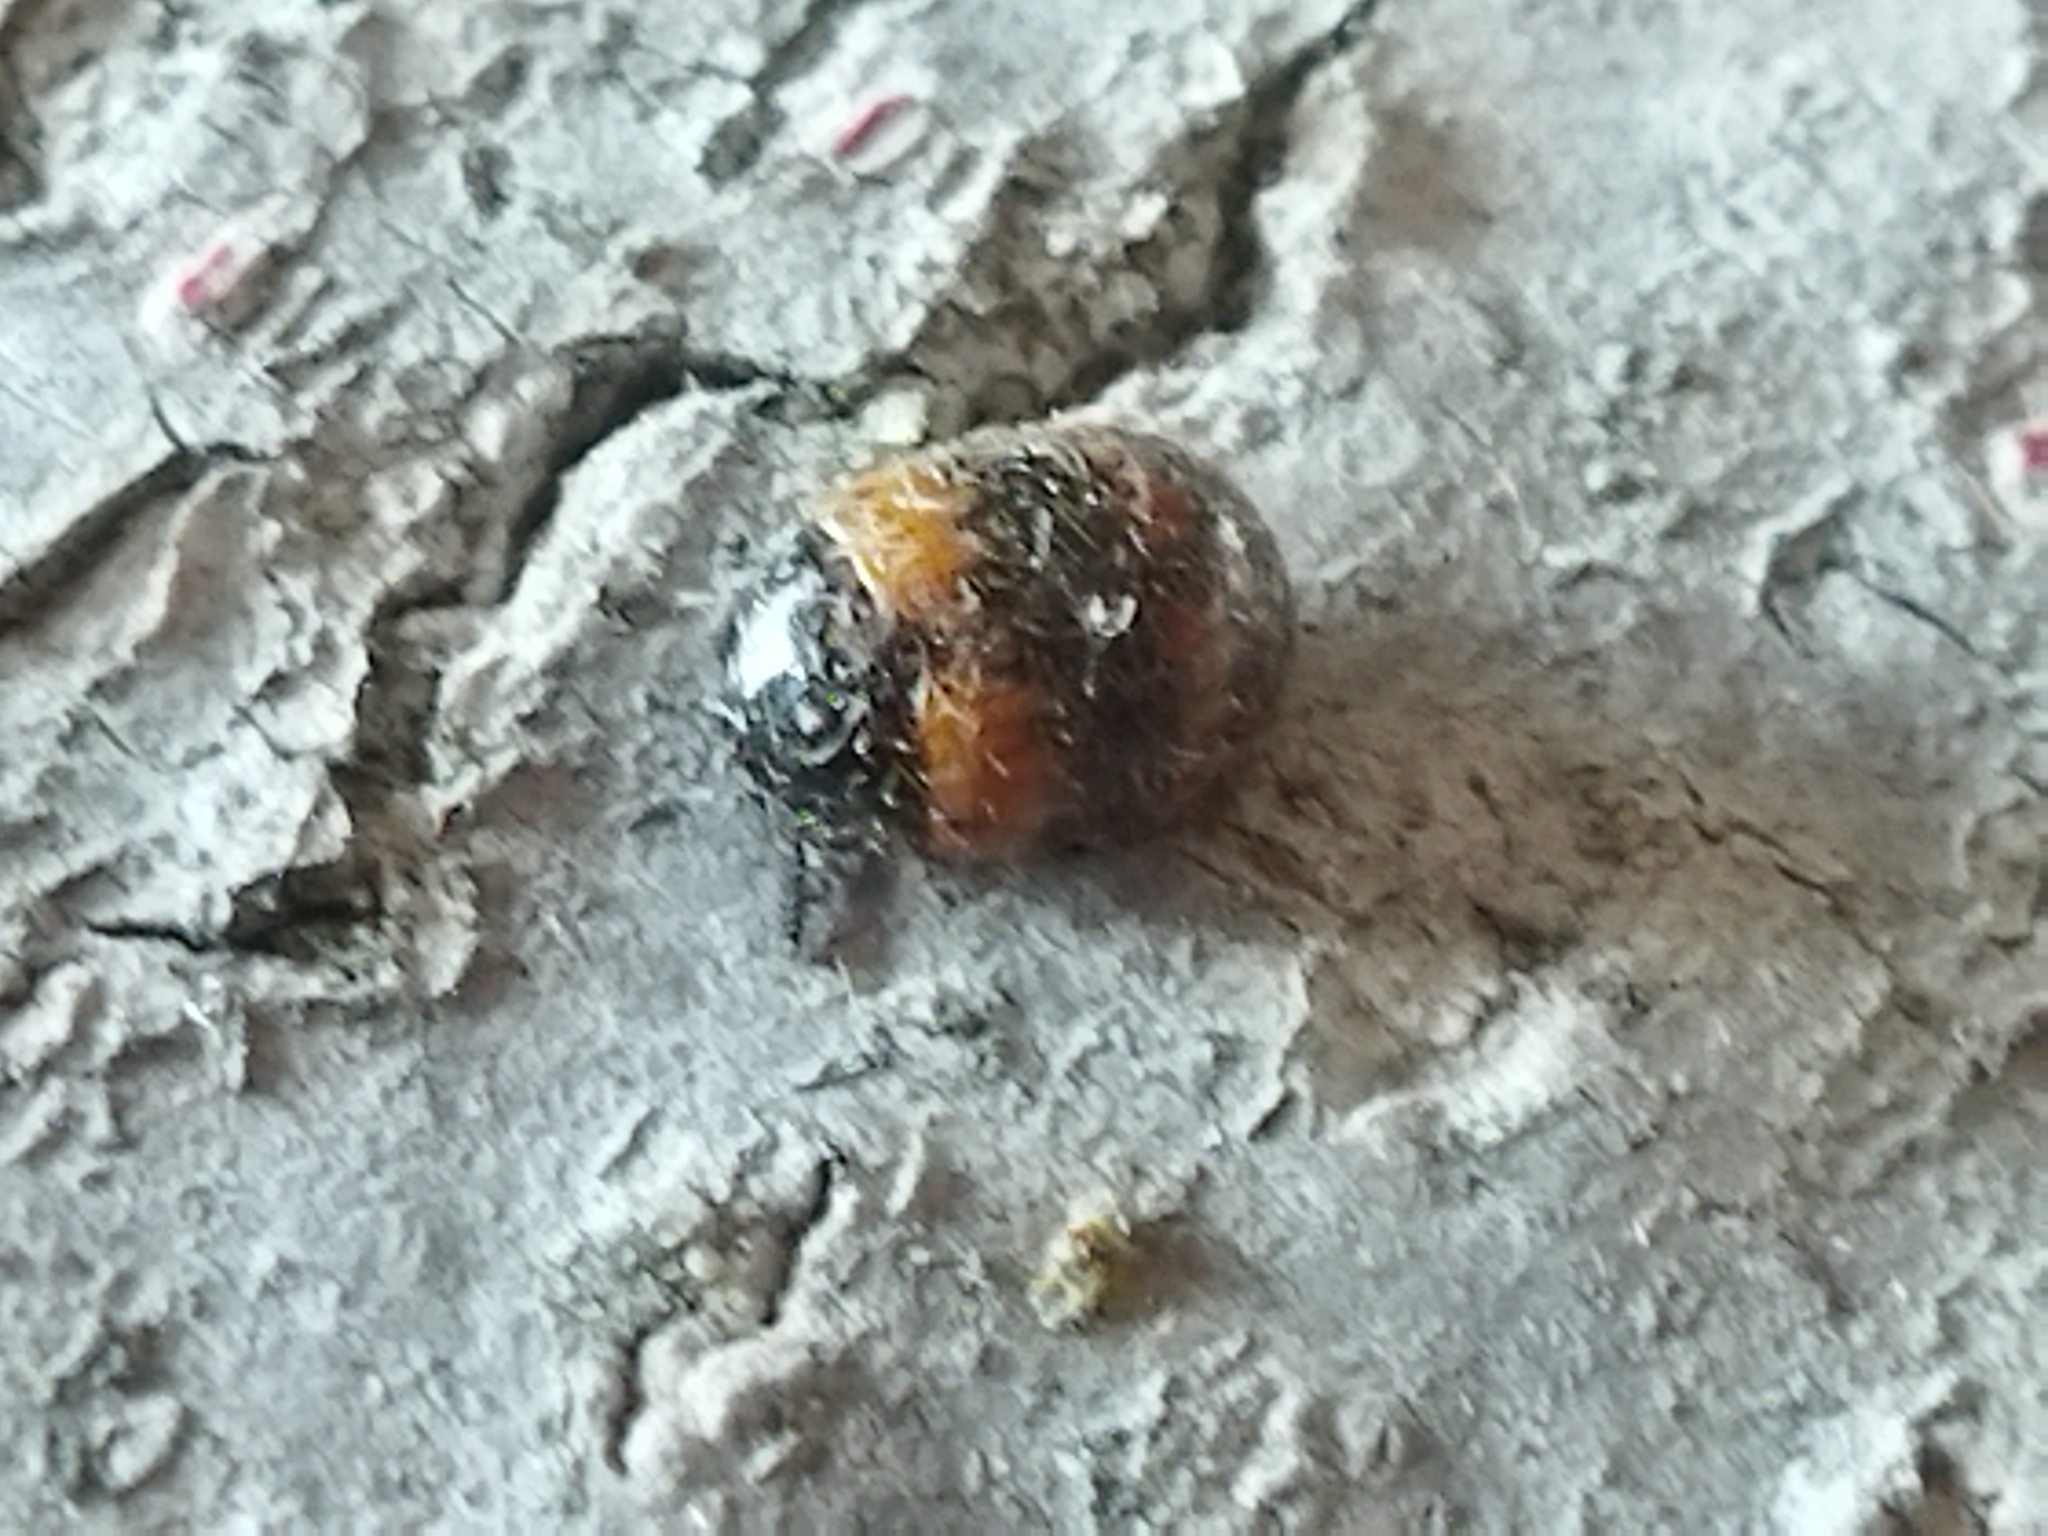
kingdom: Animalia
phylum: Arthropoda
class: Insecta
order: Coleoptera
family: Tenebrionidae
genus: Diaperis
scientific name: Diaperis boleti
